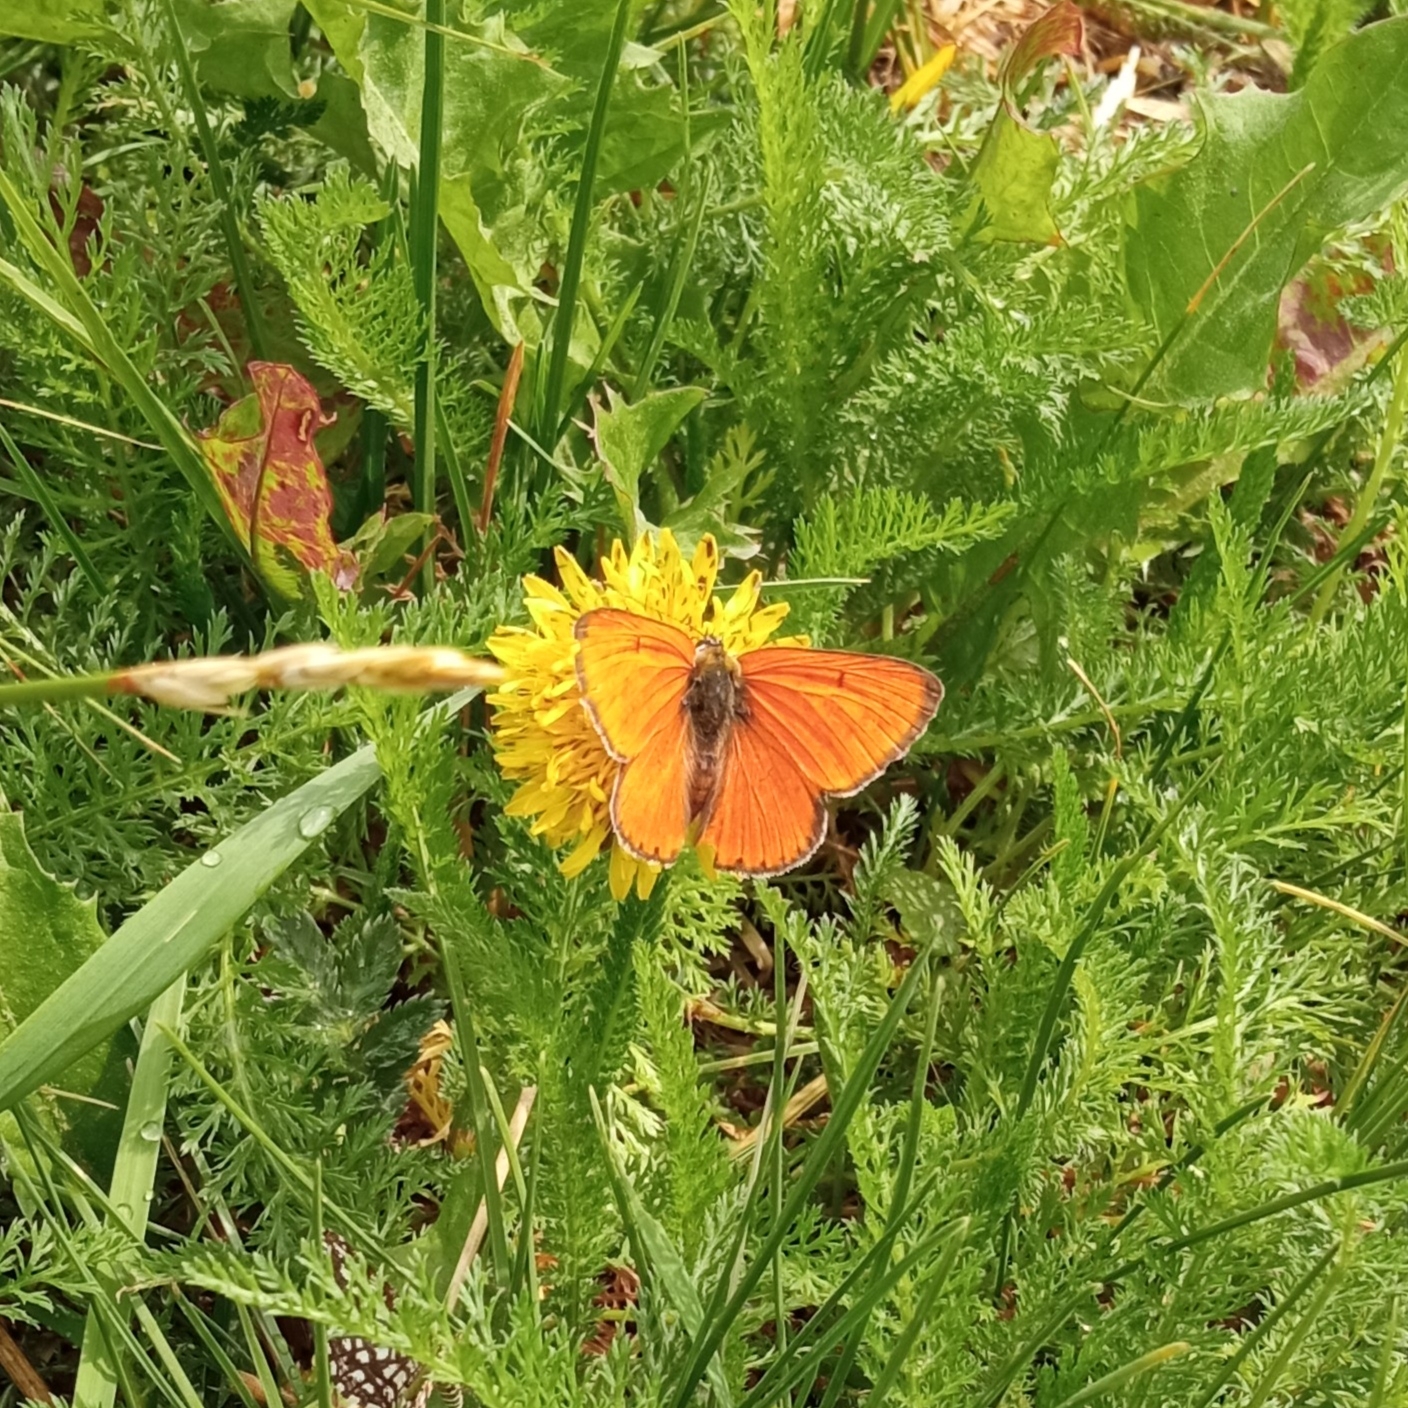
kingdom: Animalia
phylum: Arthropoda
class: Insecta
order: Lepidoptera
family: Lycaenidae
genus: Lycaena
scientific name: Lycaena dispar
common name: Large copper
